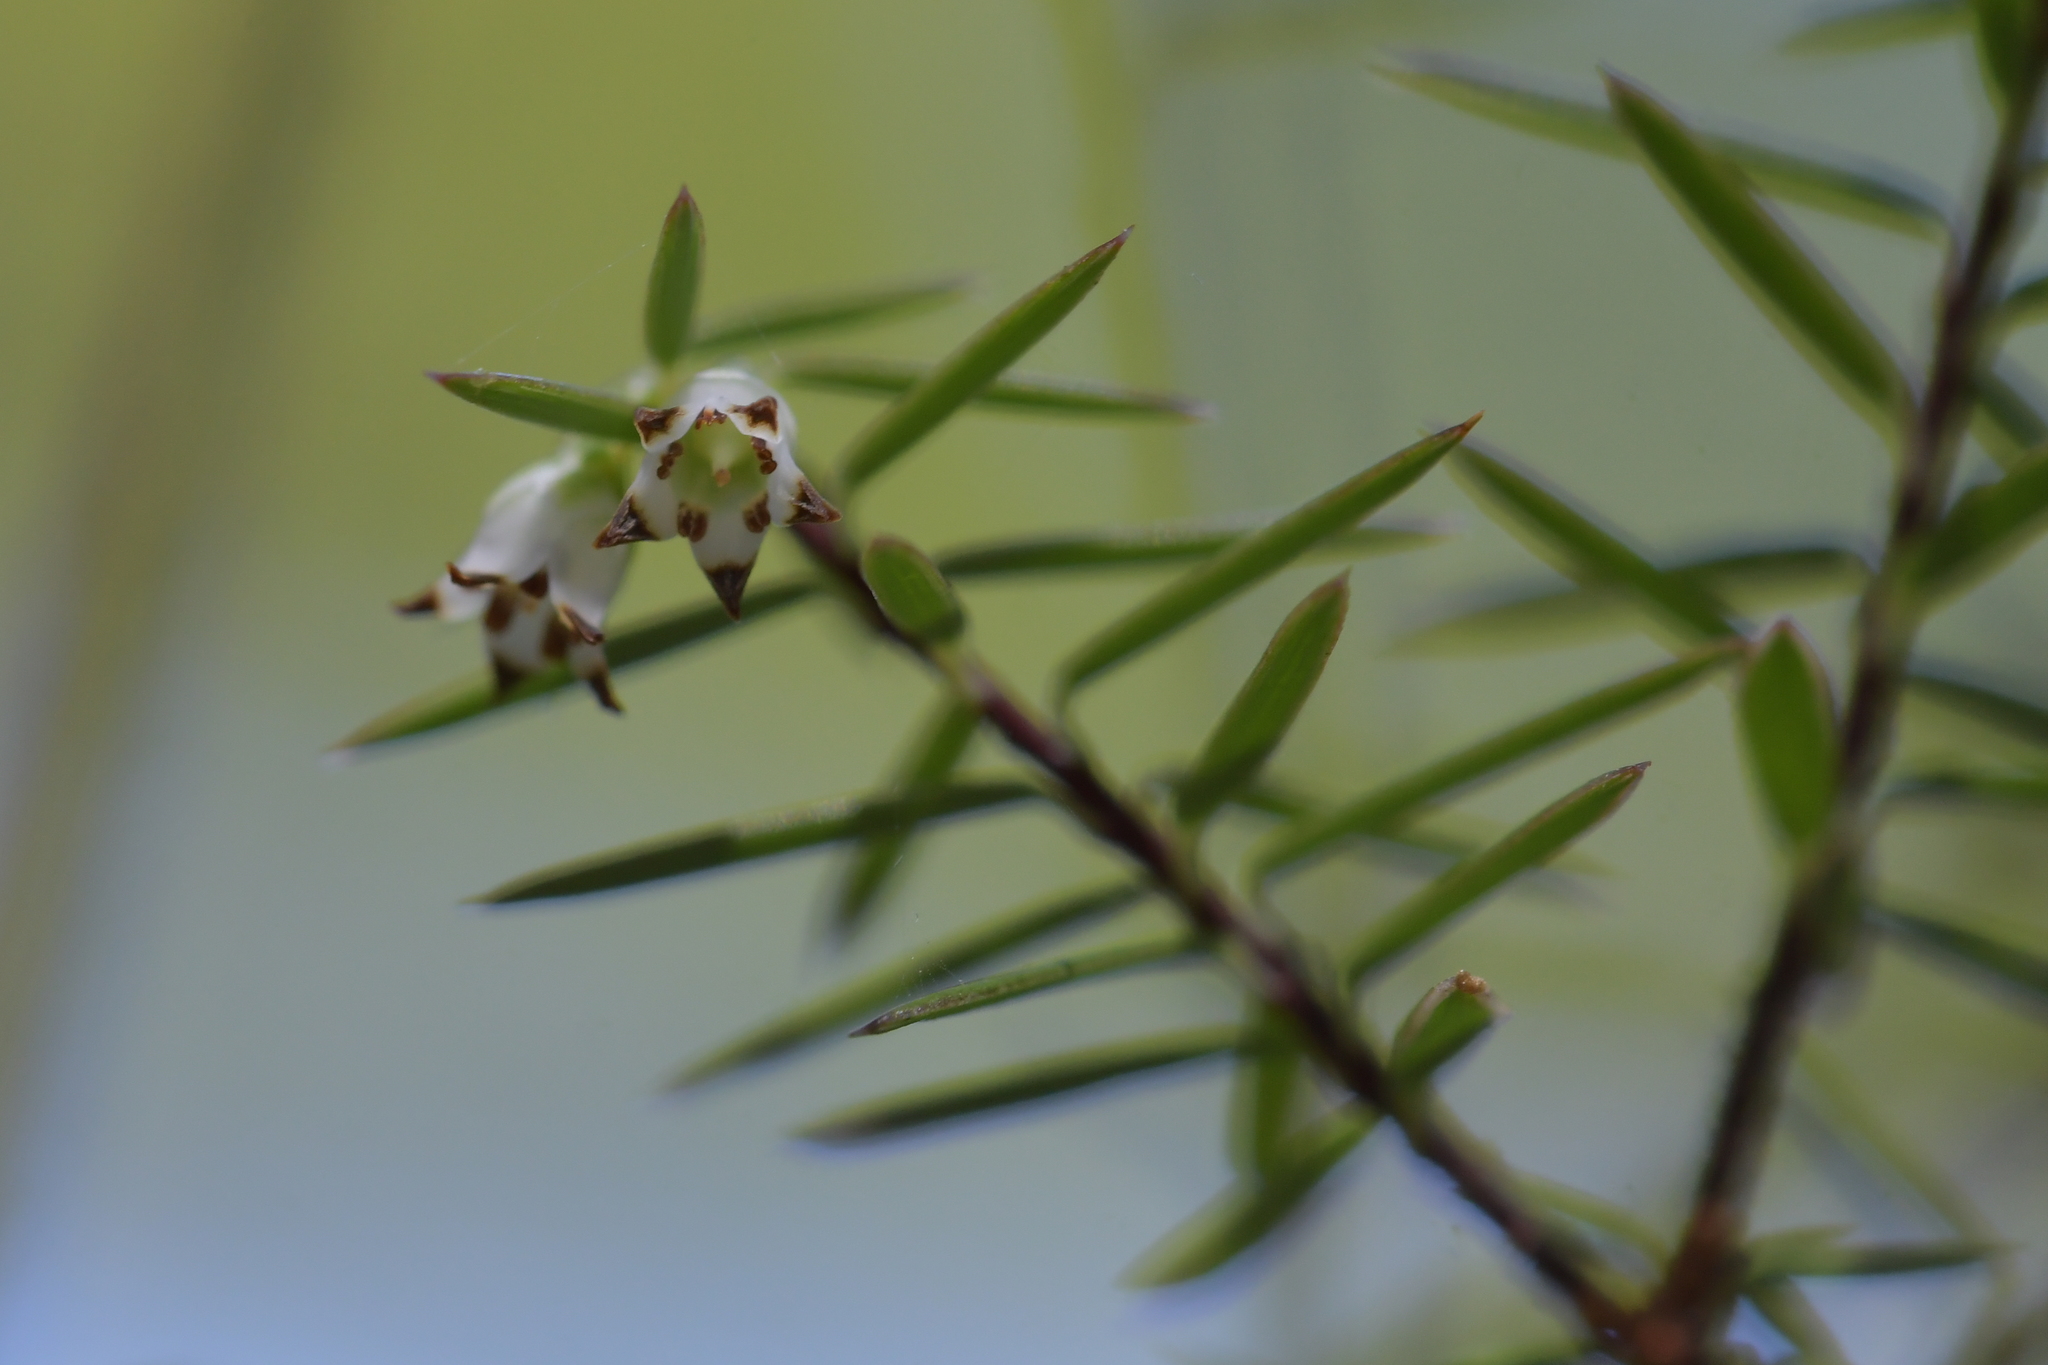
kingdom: Plantae
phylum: Tracheophyta
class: Magnoliopsida
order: Ericales
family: Ericaceae
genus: Leptecophylla
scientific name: Leptecophylla juniperina
